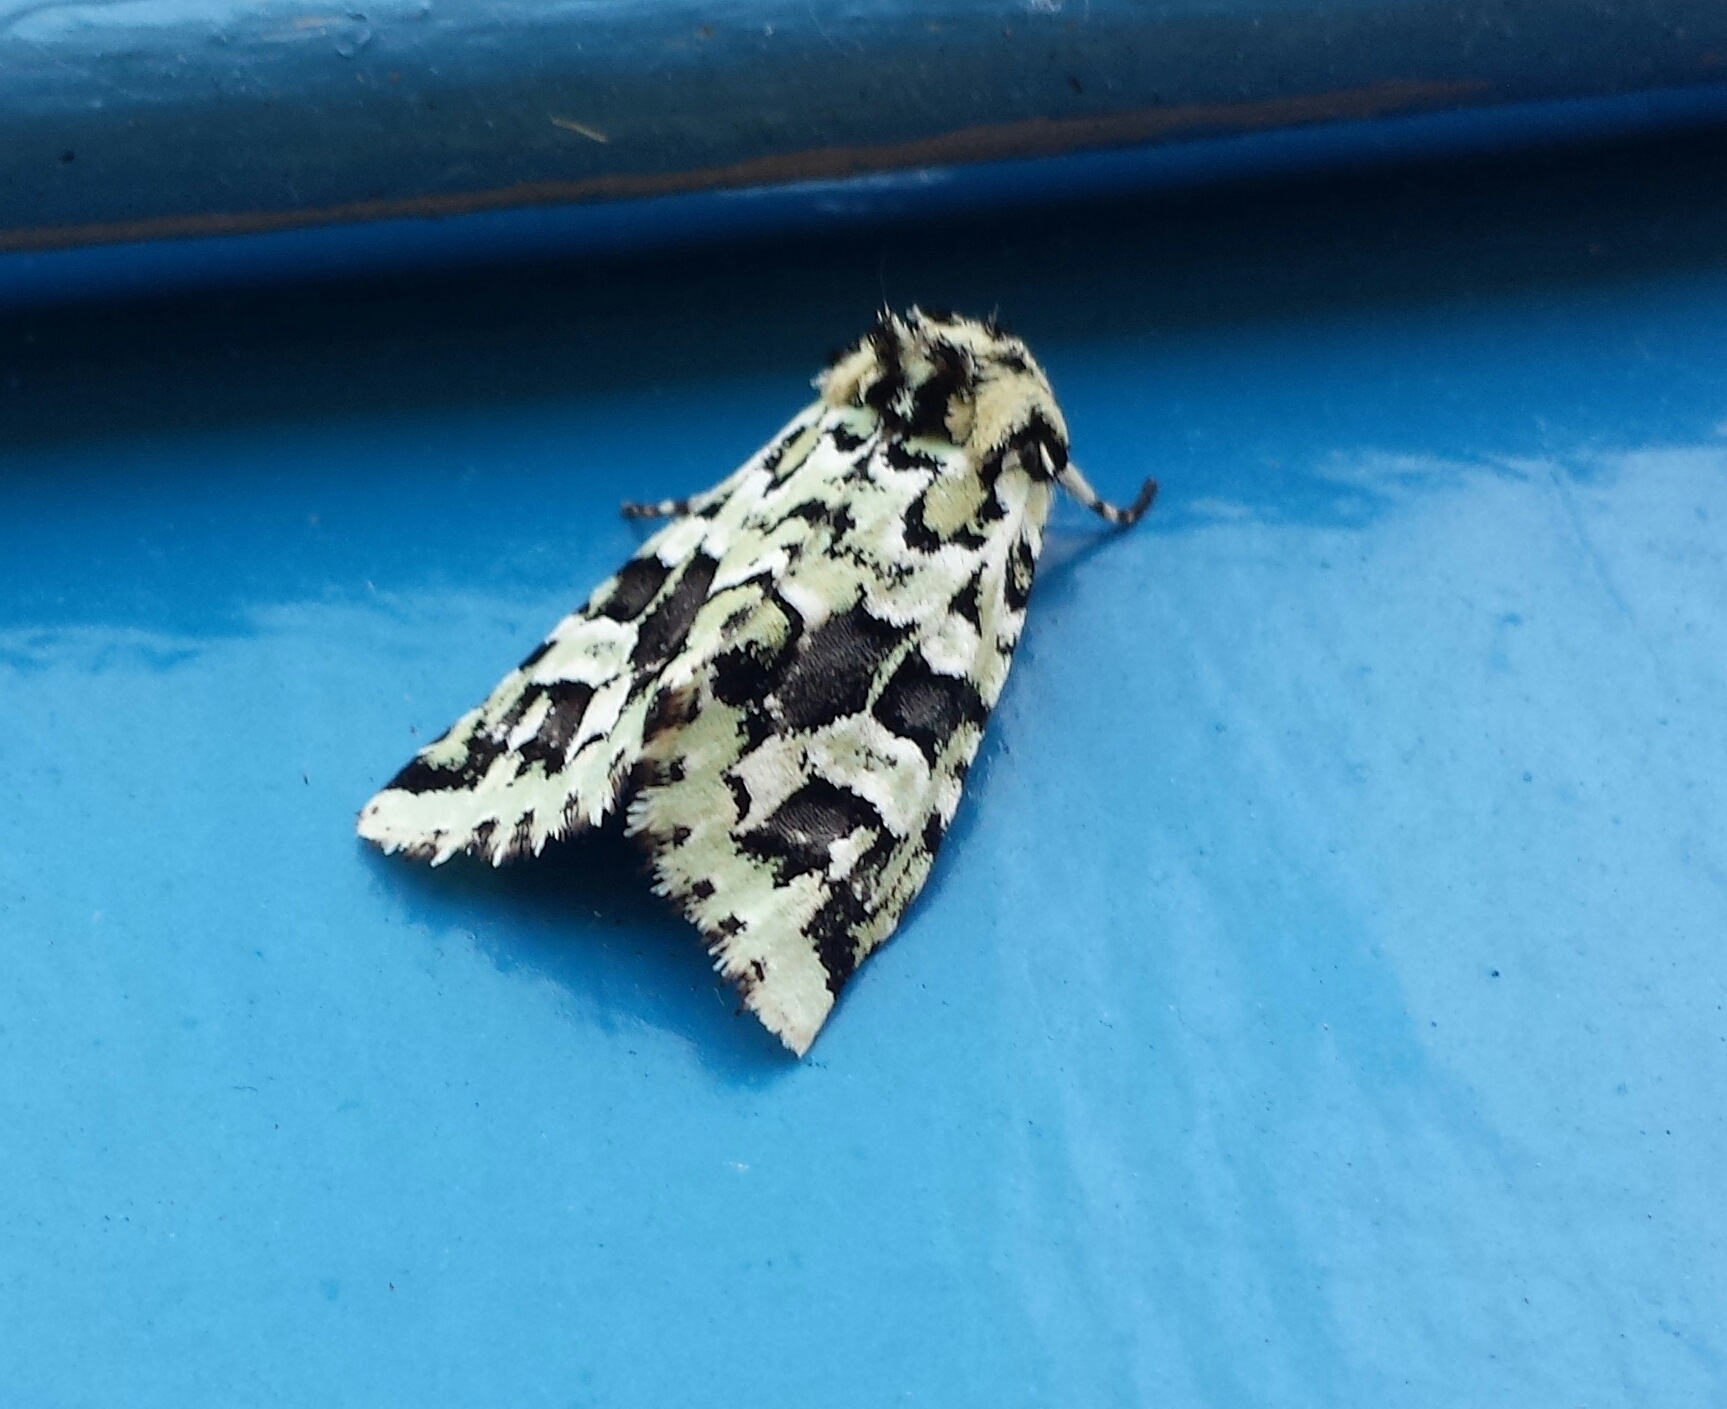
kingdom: Animalia
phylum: Arthropoda
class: Insecta
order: Lepidoptera
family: Noctuidae
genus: Feralia
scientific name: Feralia comstocki
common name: Comstock's sallow
